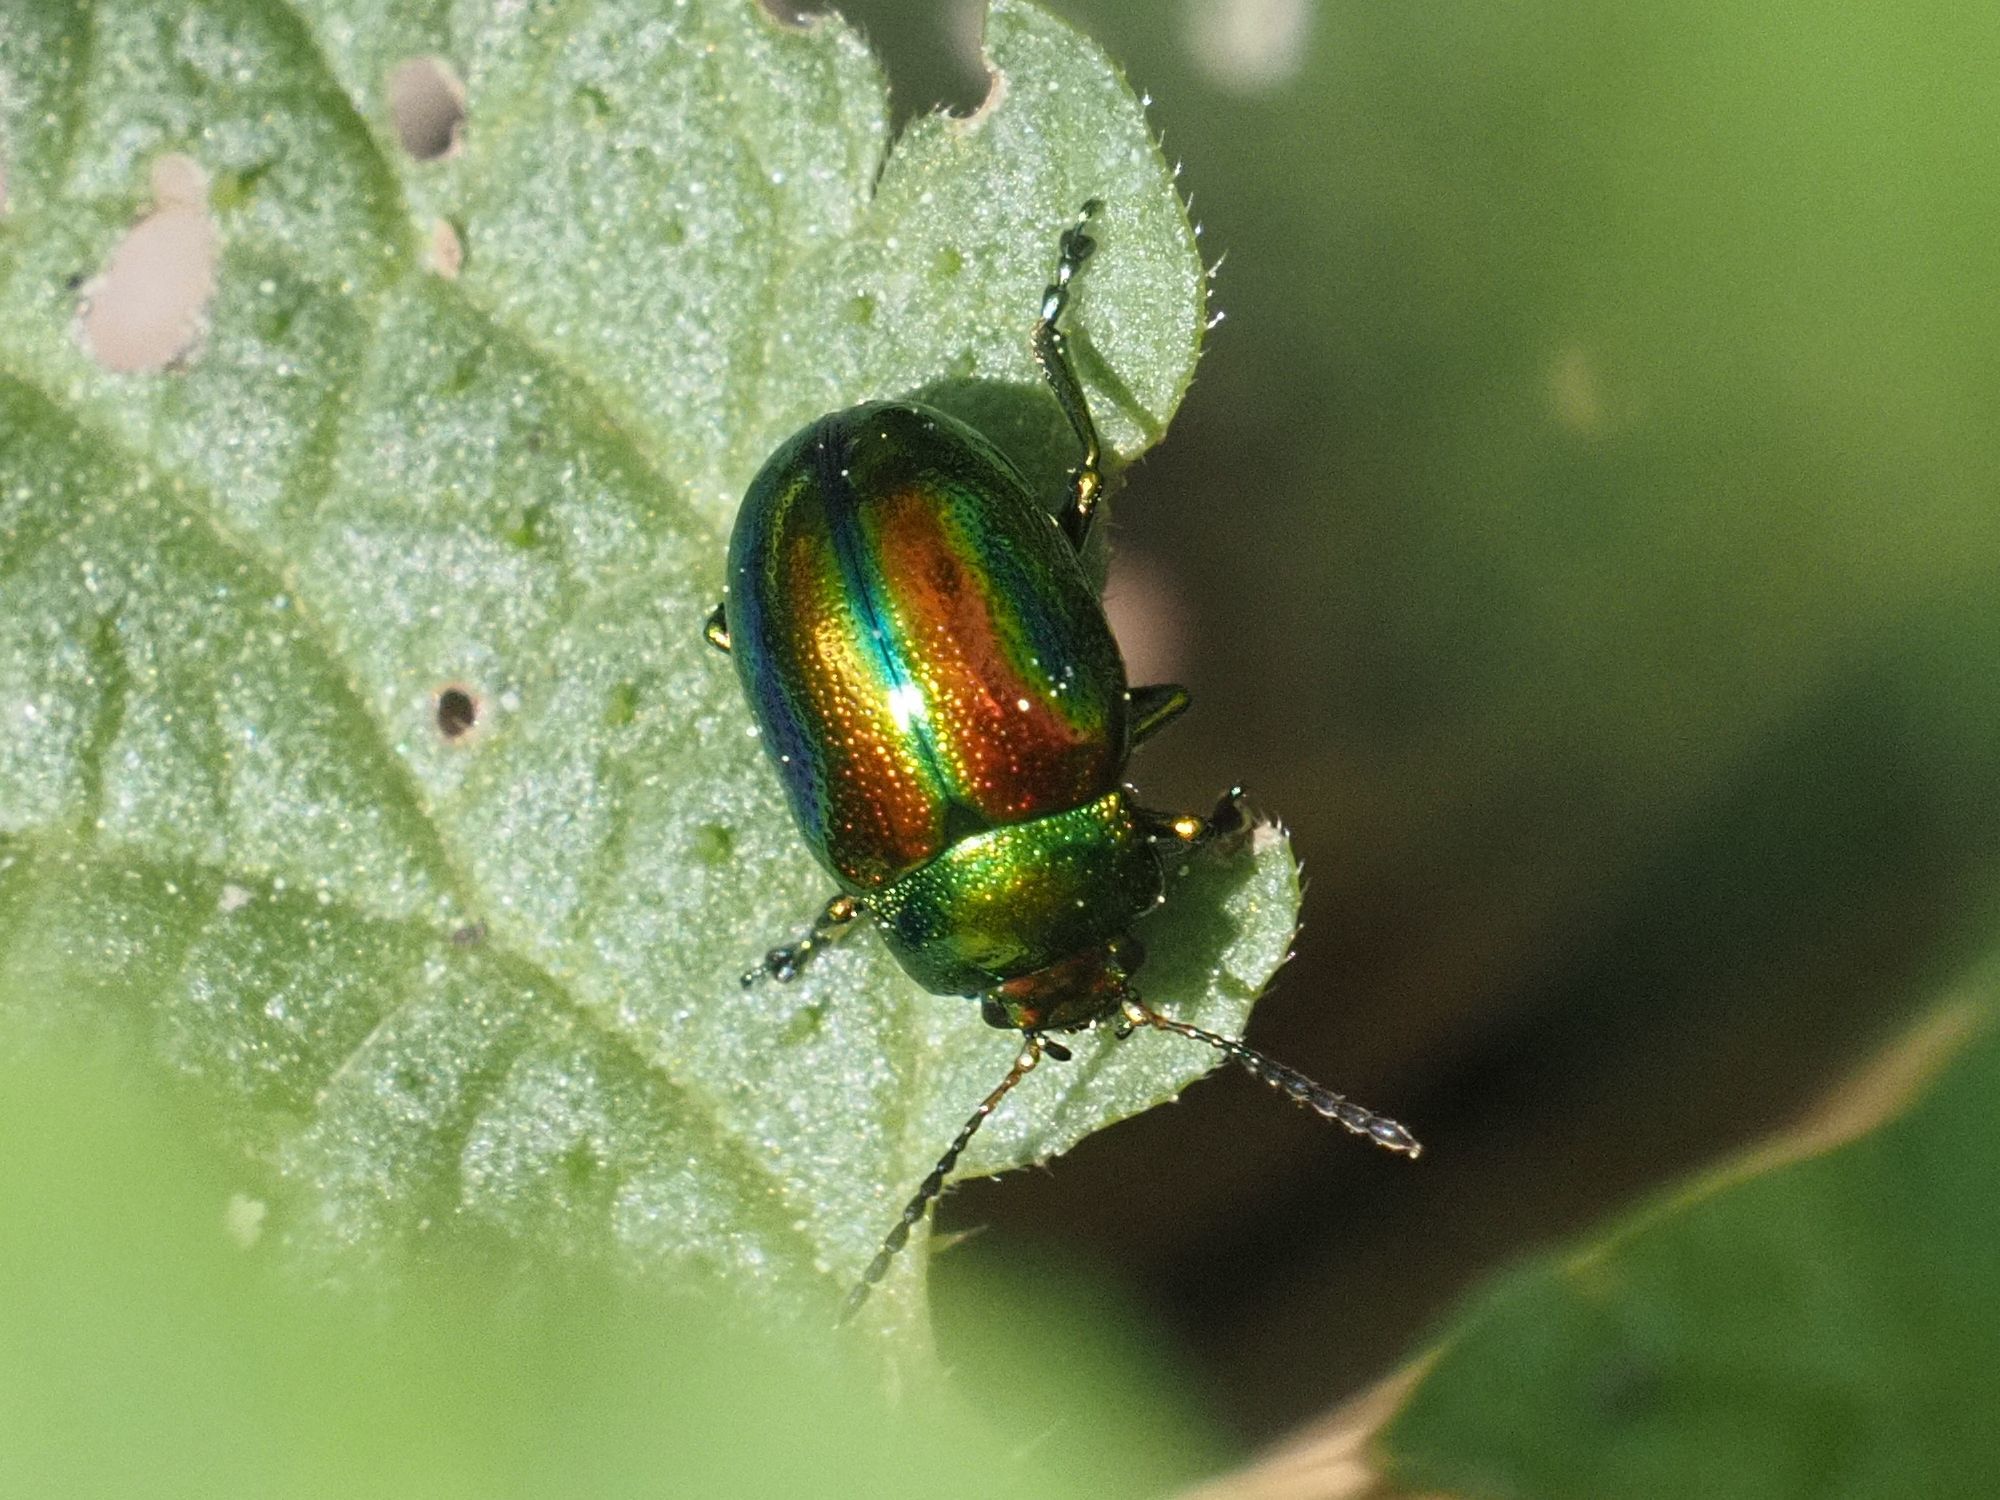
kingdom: Animalia
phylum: Arthropoda
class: Insecta
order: Coleoptera
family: Chrysomelidae
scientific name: Chrysomelidae
